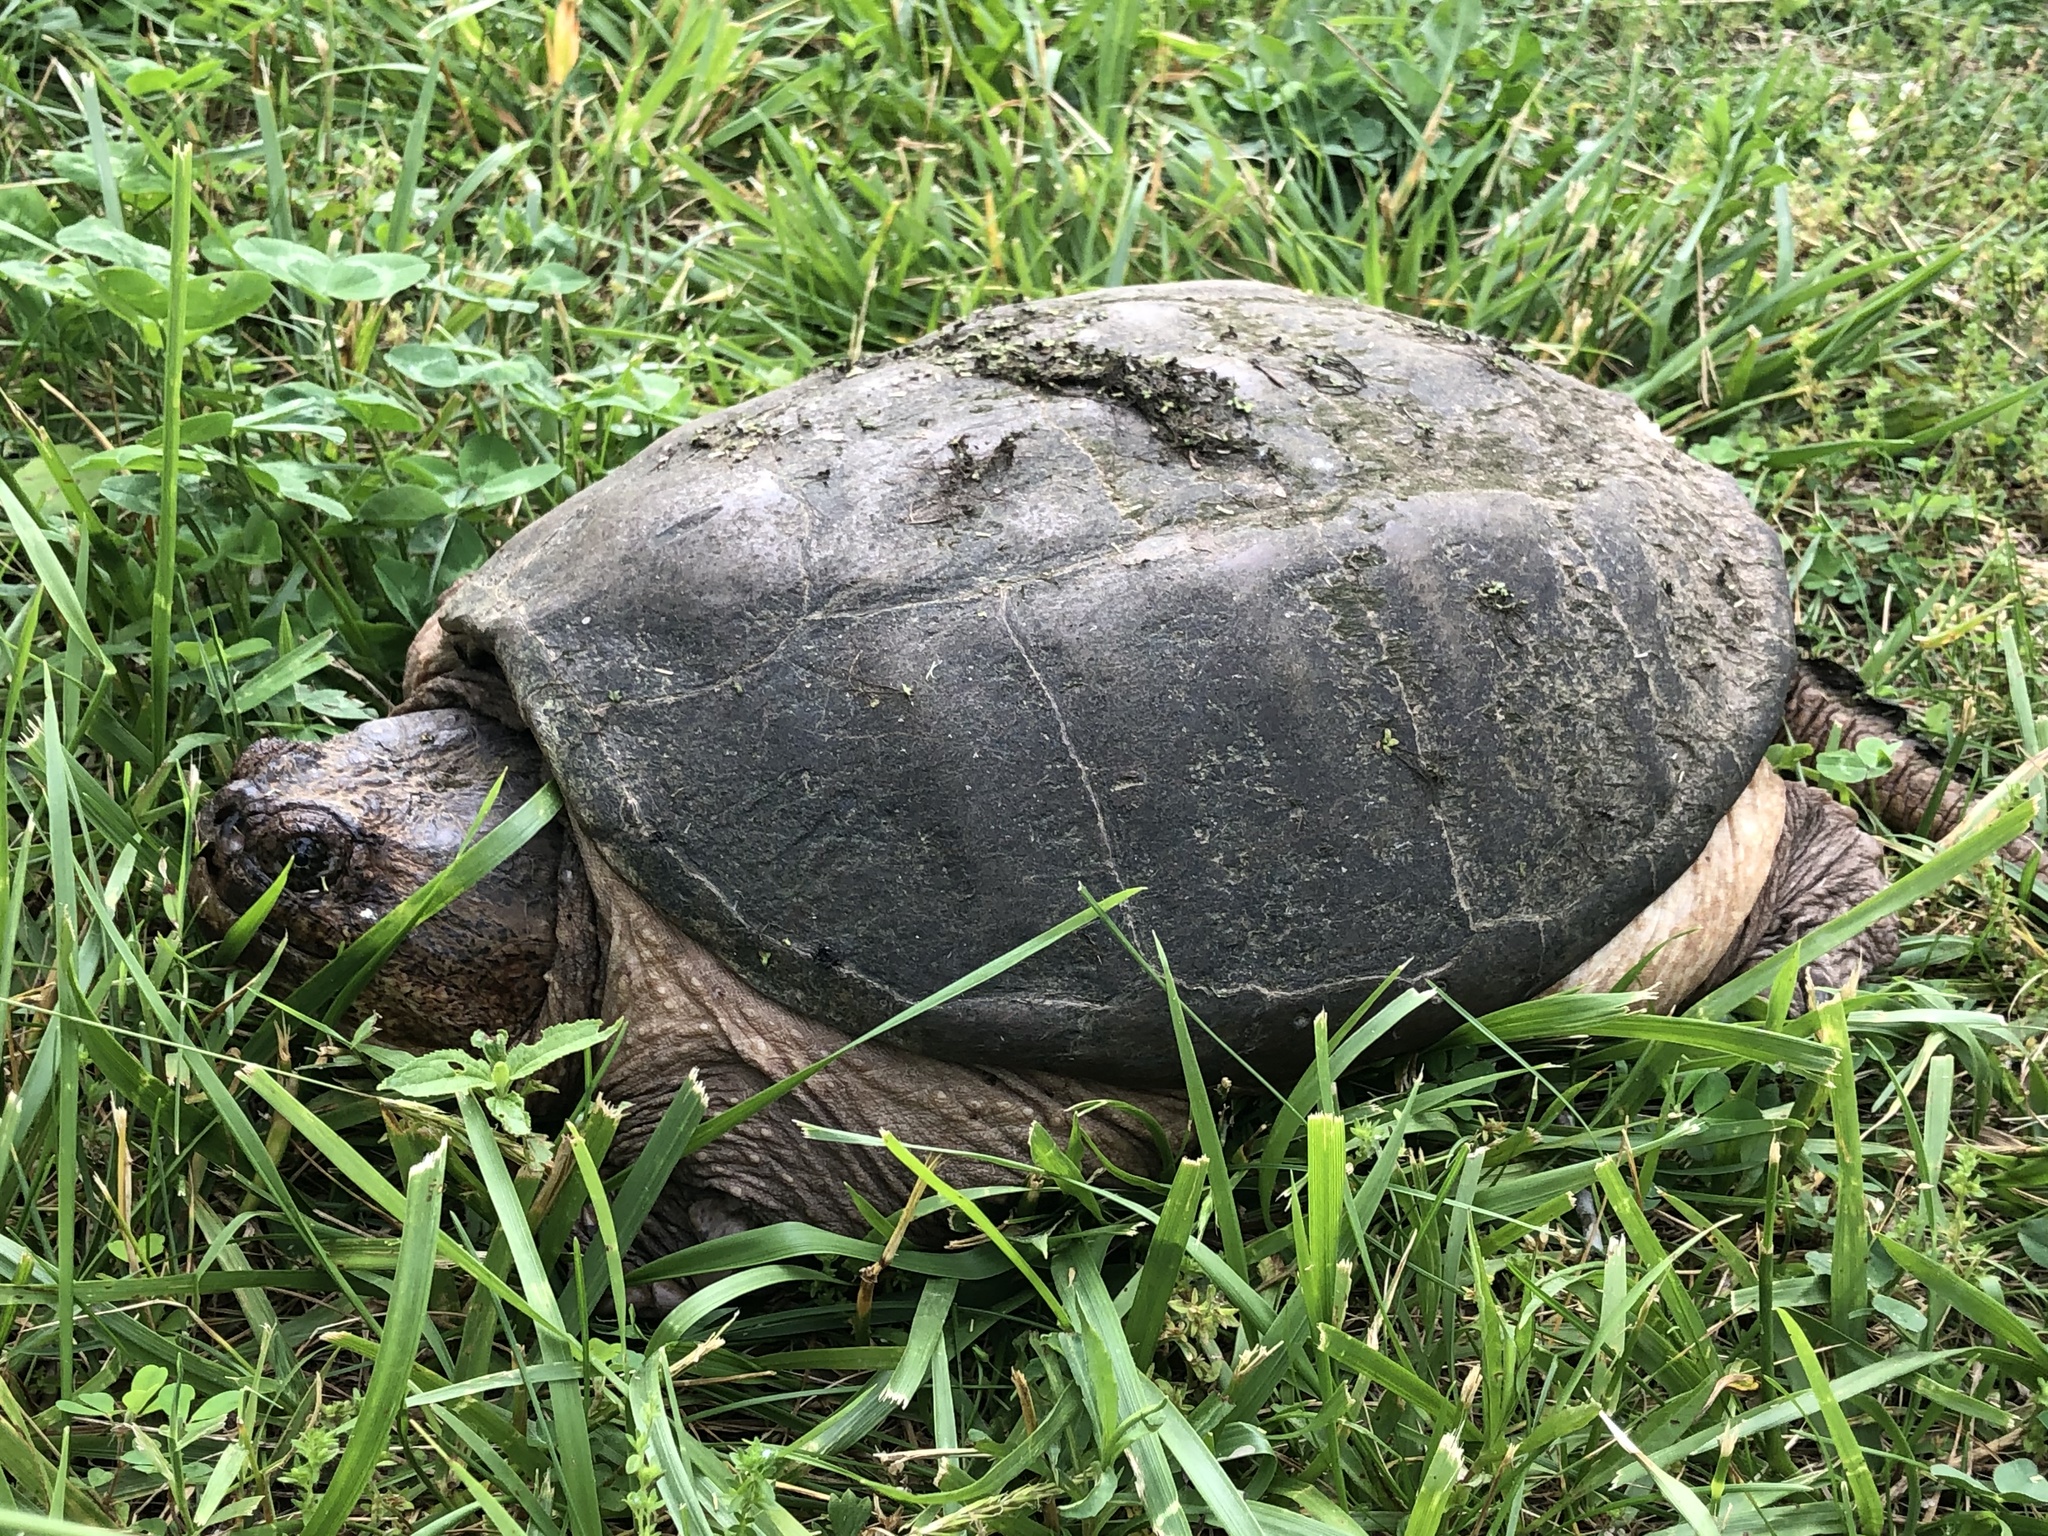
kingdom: Animalia
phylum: Chordata
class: Testudines
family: Chelydridae
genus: Chelydra
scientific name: Chelydra serpentina
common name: Common snapping turtle
